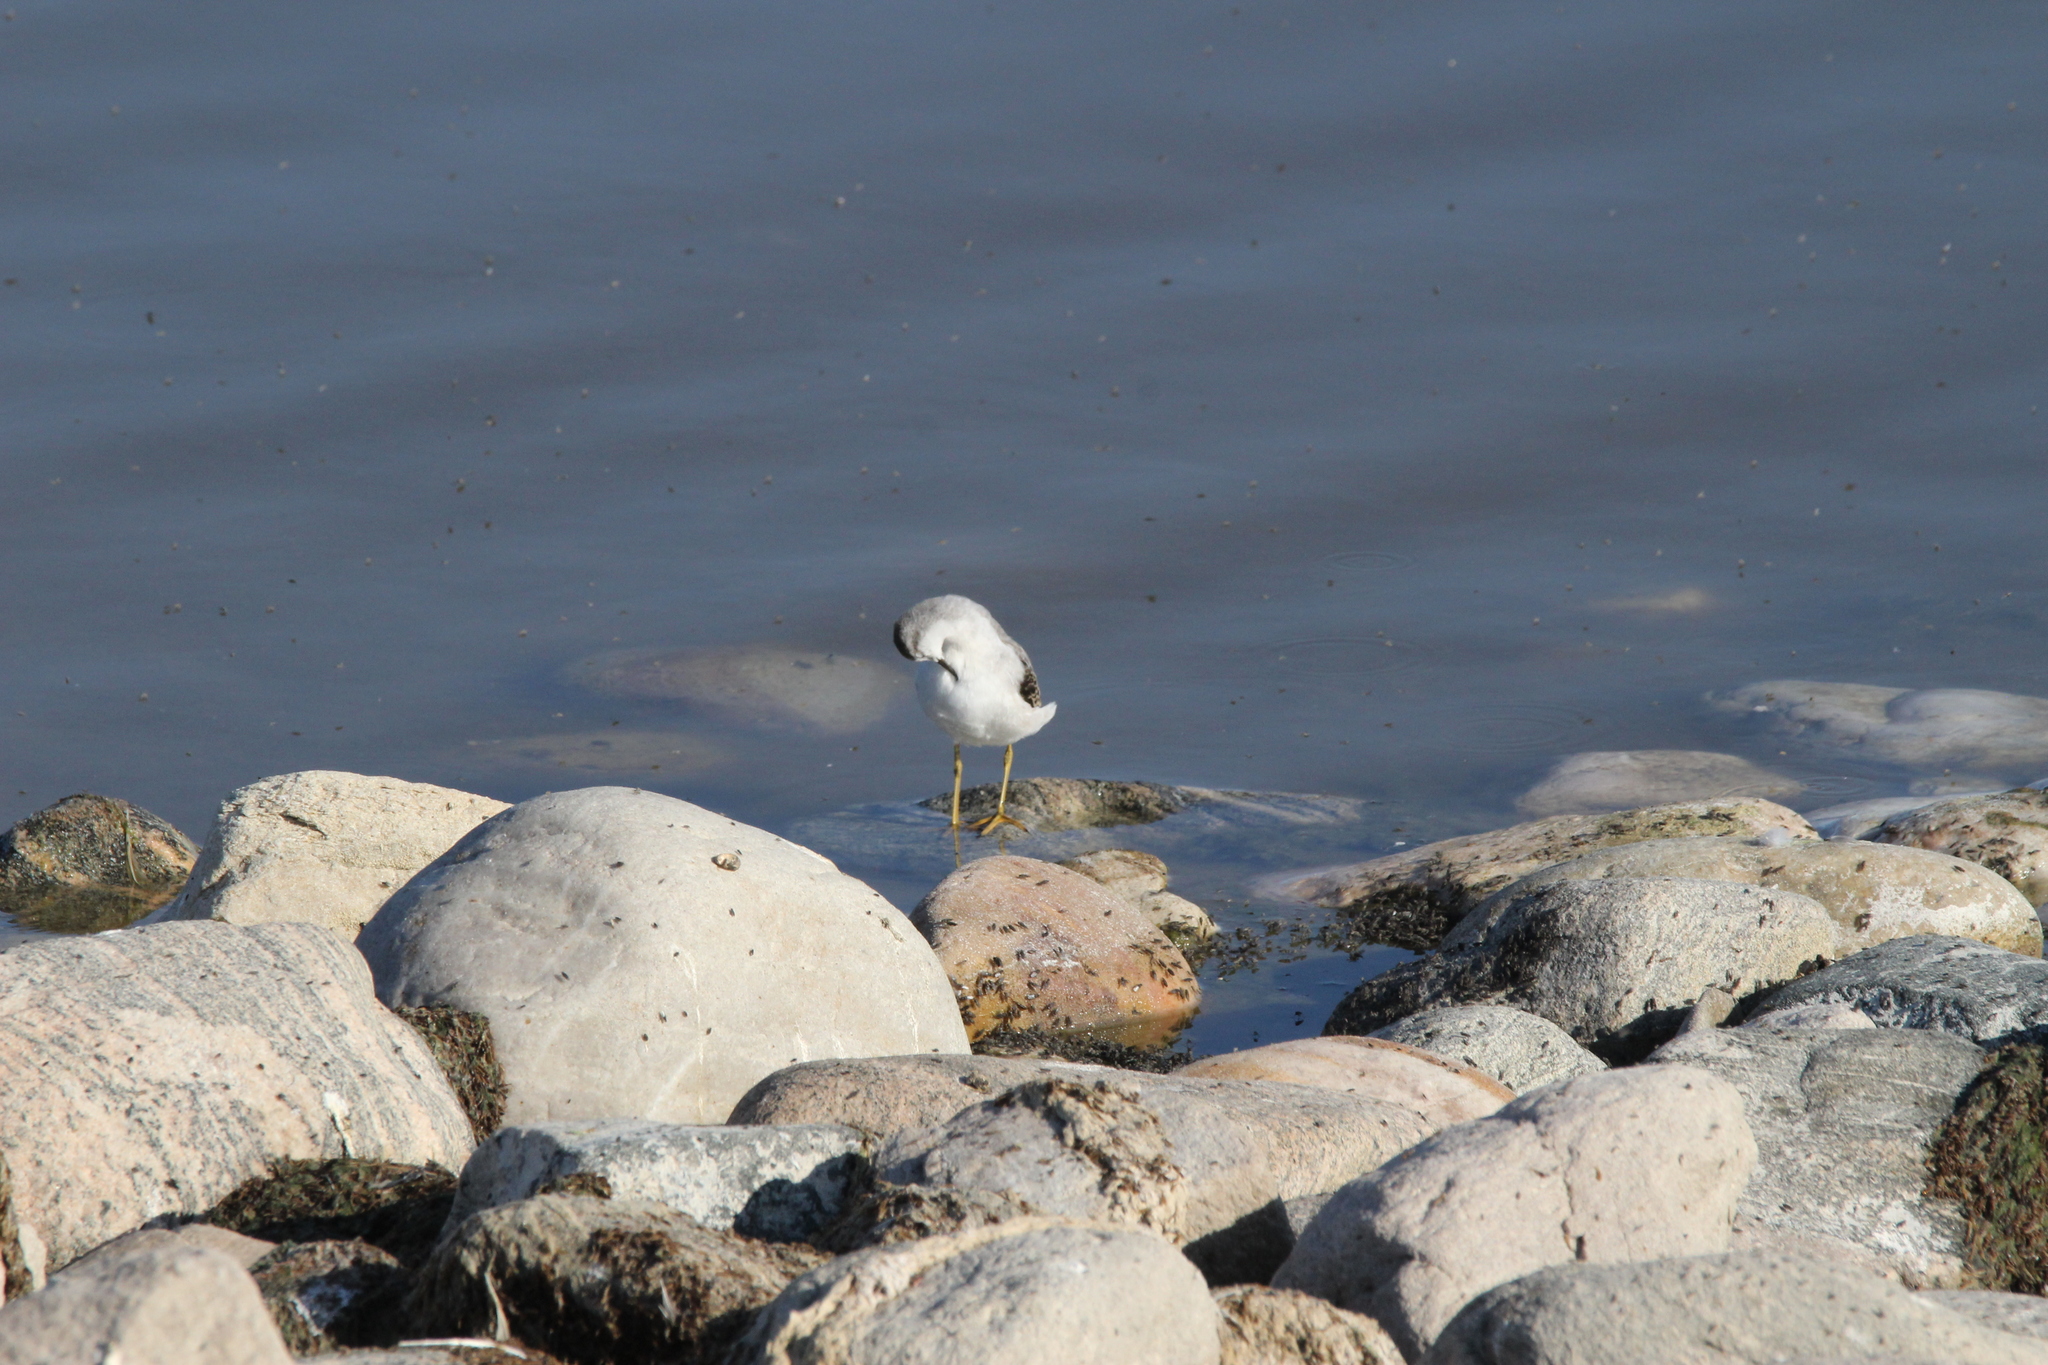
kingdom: Animalia
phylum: Chordata
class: Aves
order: Charadriiformes
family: Scolopacidae
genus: Phalaropus
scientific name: Phalaropus tricolor
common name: Wilson's phalarope
